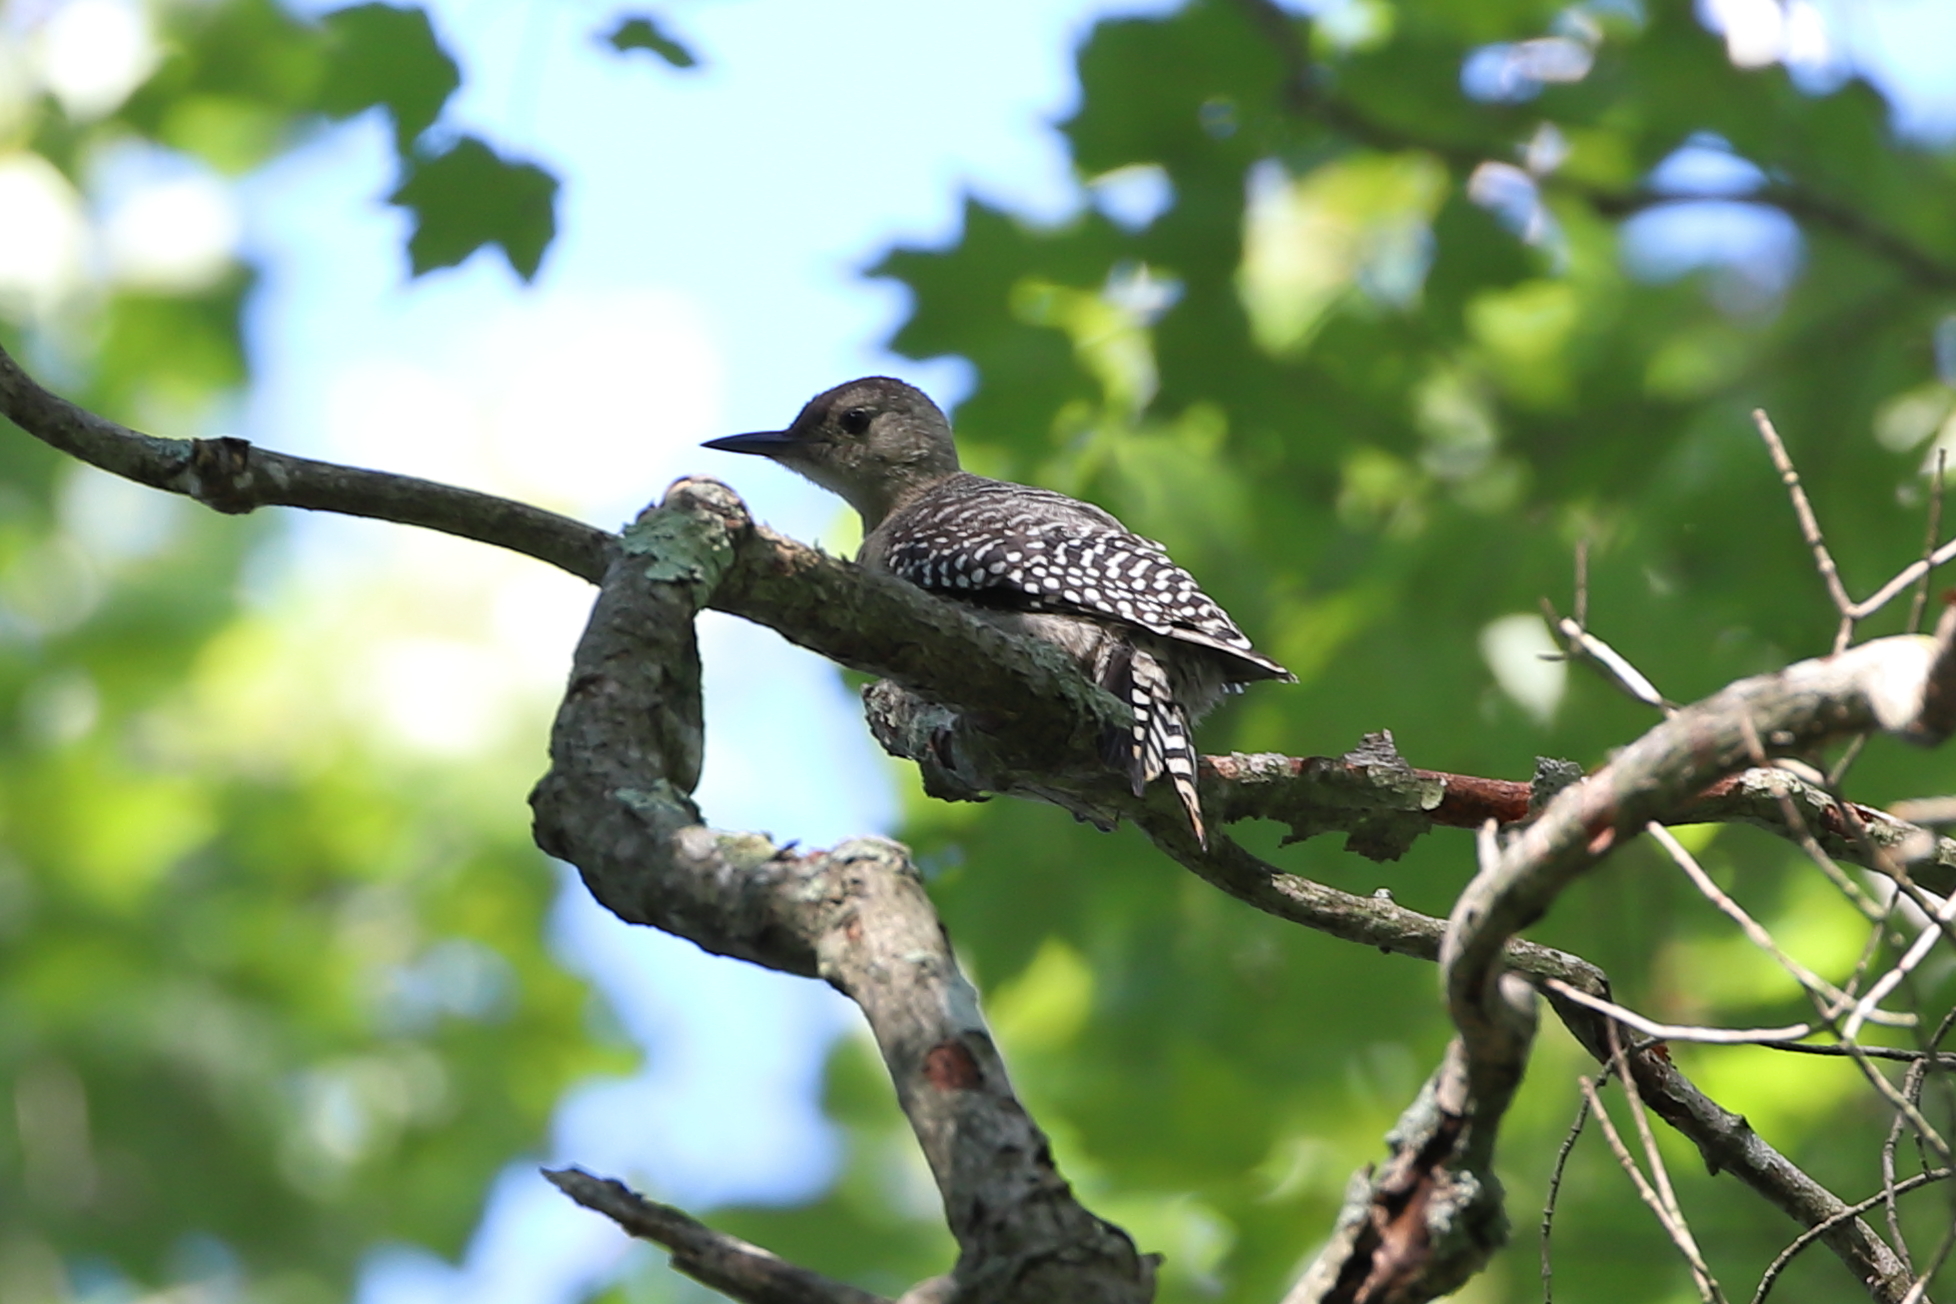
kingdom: Animalia
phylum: Chordata
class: Aves
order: Piciformes
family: Picidae
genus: Melanerpes
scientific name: Melanerpes carolinus
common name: Red-bellied woodpecker
